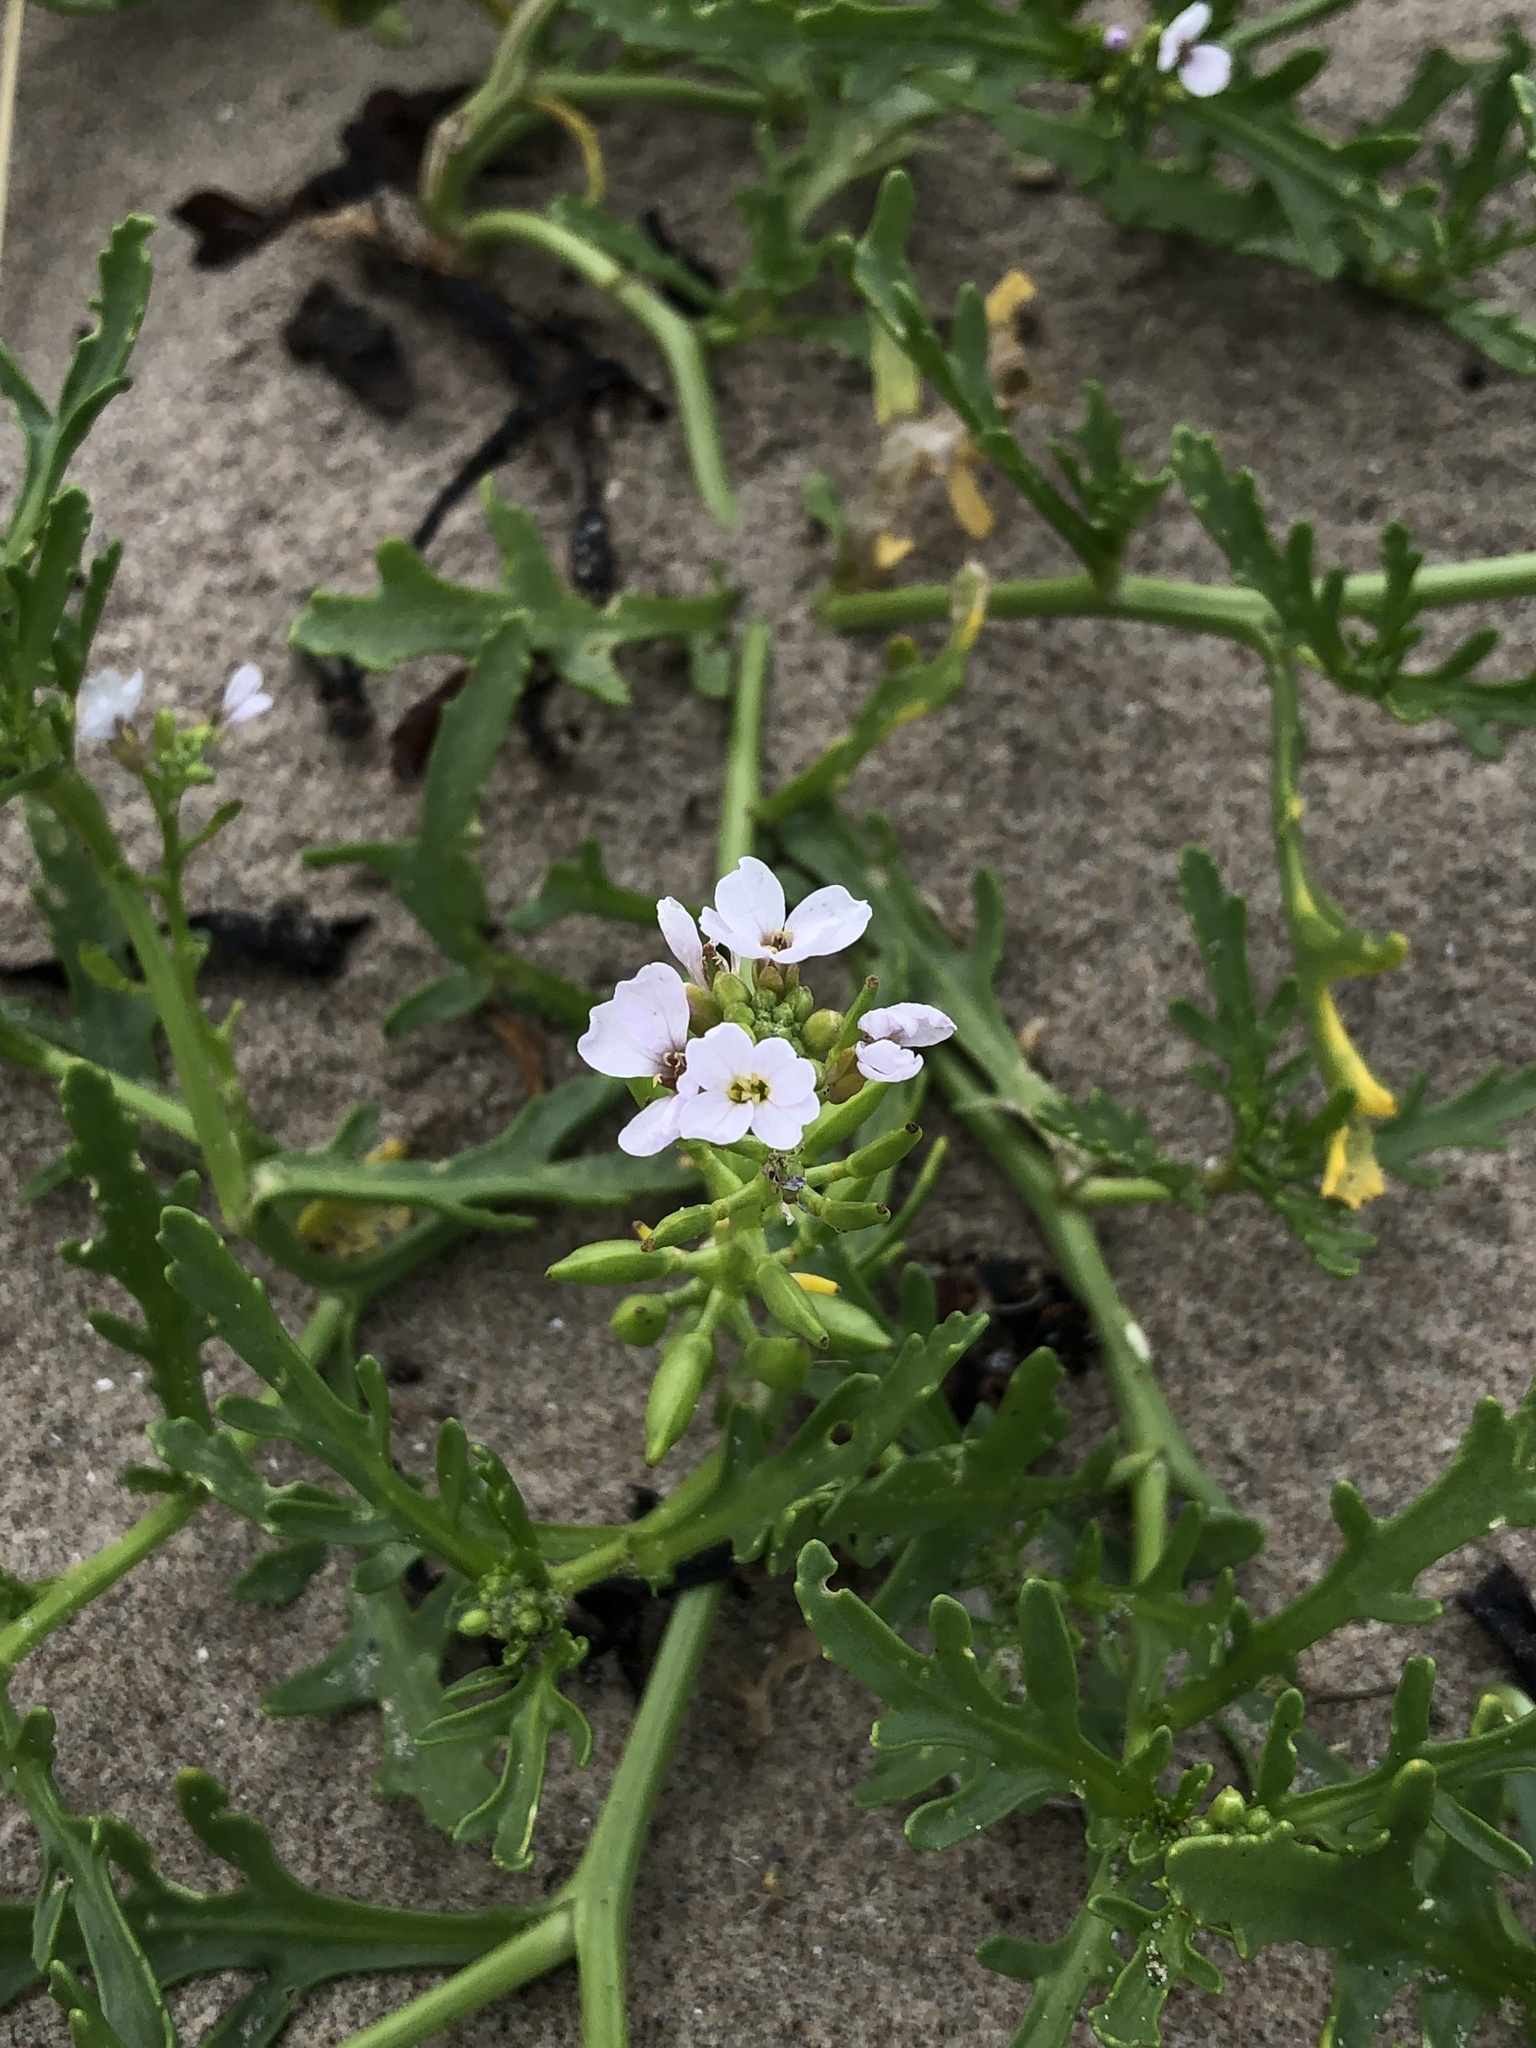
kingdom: Plantae
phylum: Tracheophyta
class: Magnoliopsida
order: Brassicales
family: Brassicaceae
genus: Cakile
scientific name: Cakile maritima
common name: Sea rocket
